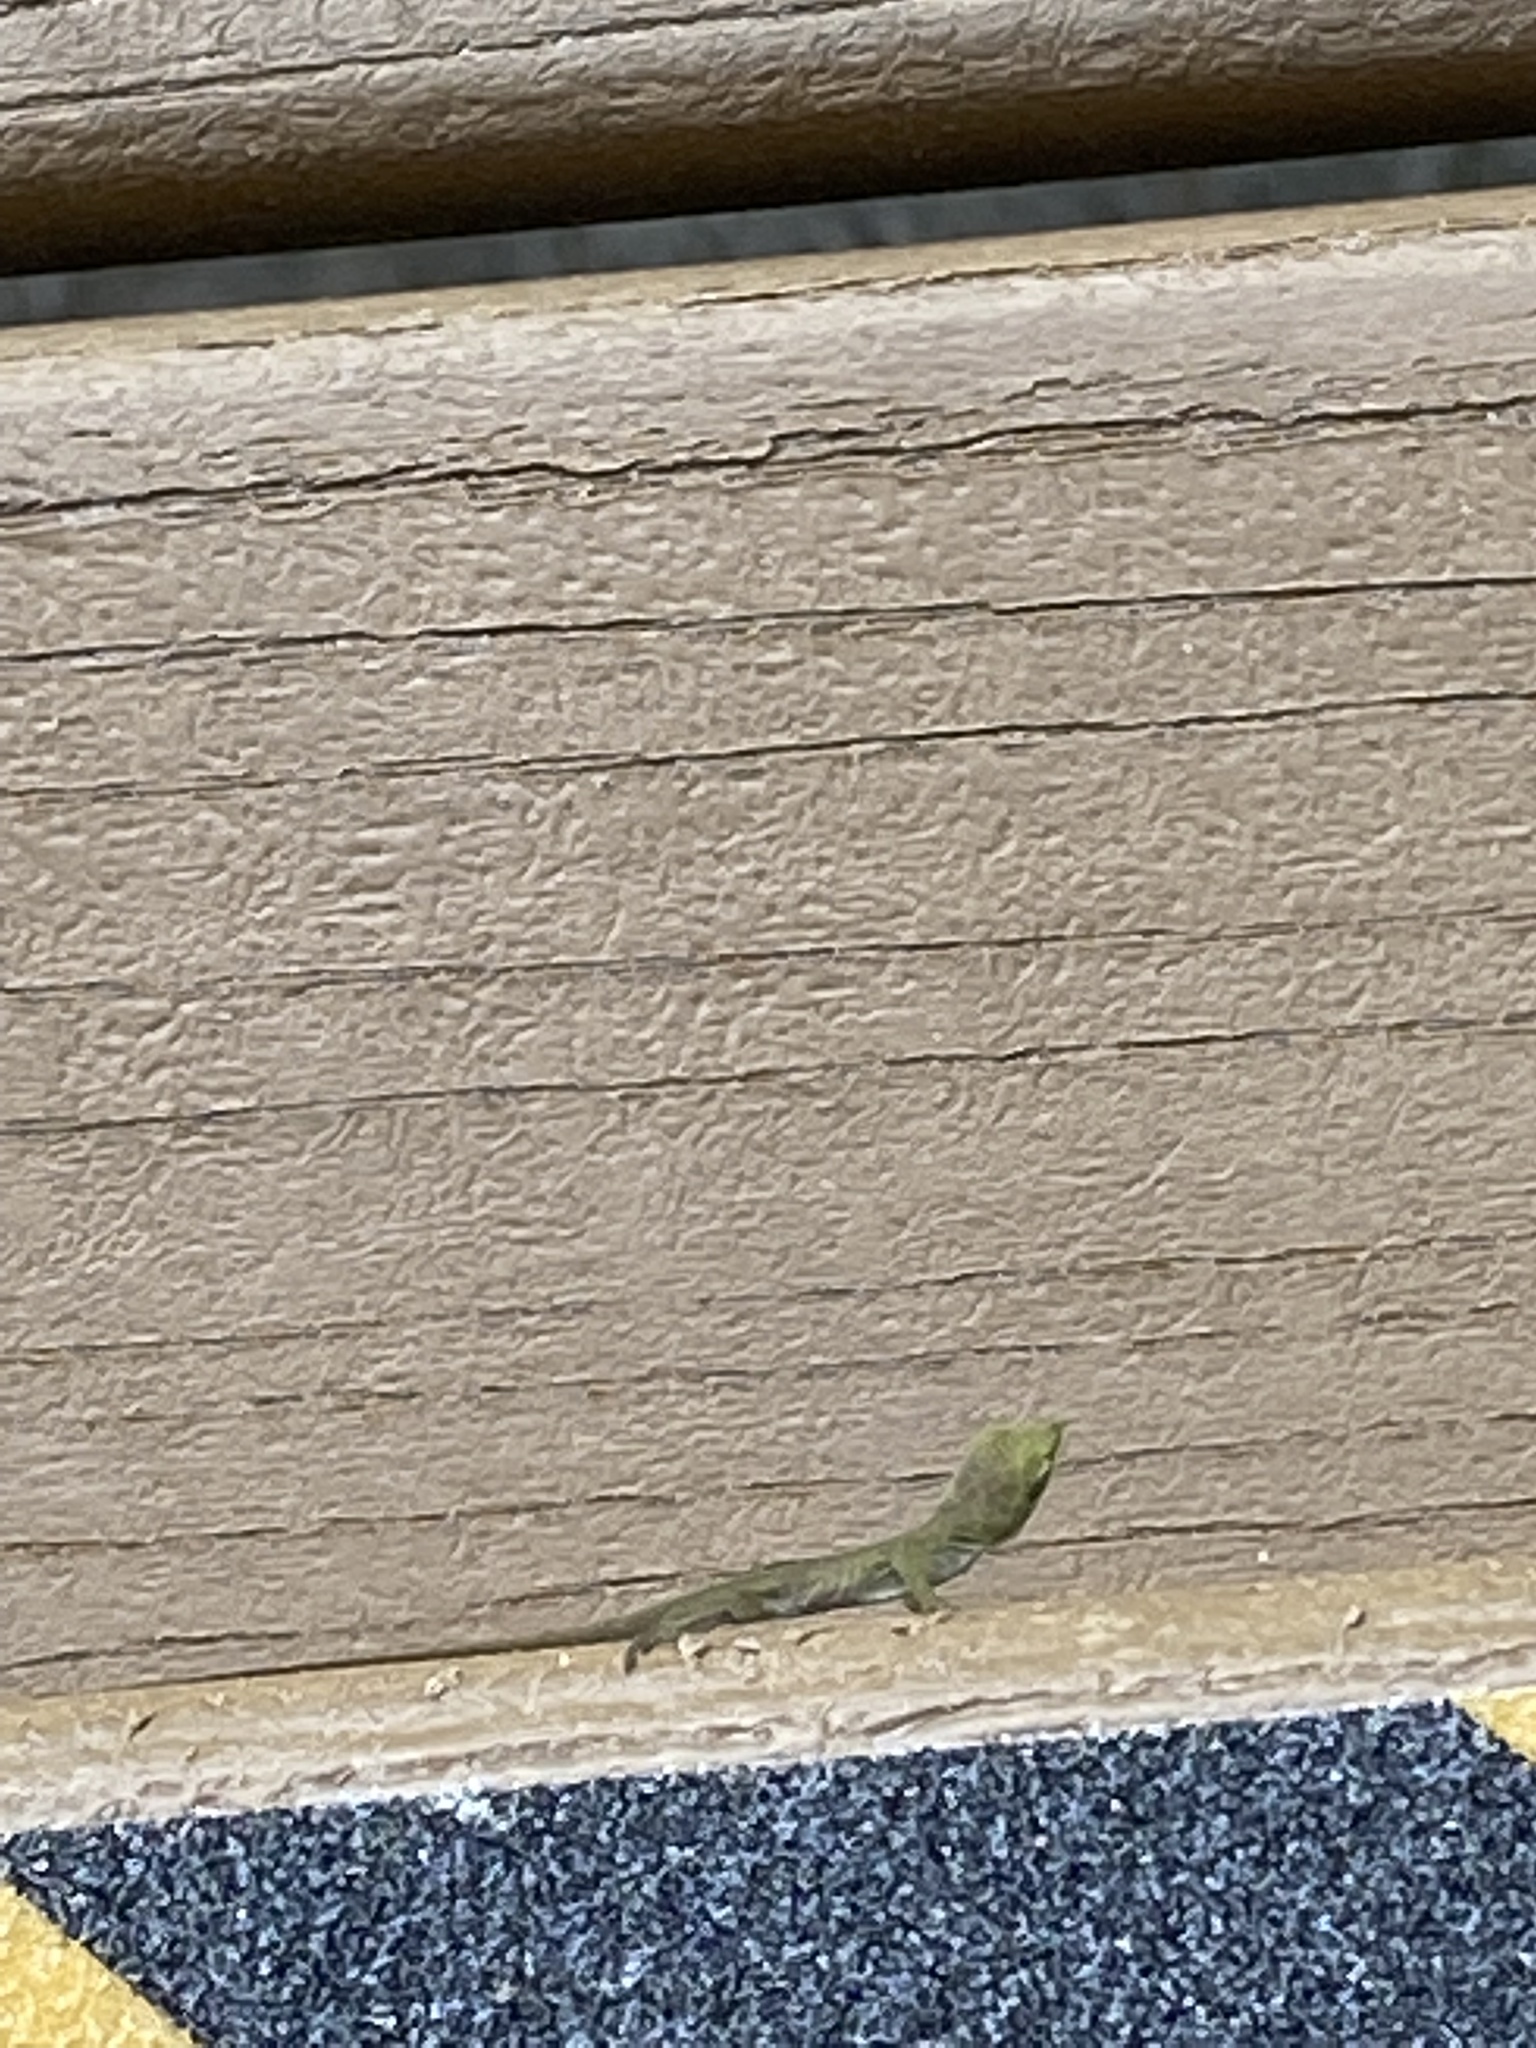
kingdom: Animalia
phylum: Chordata
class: Squamata
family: Dactyloidae
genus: Anolis
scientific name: Anolis carolinensis
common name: Green anole
